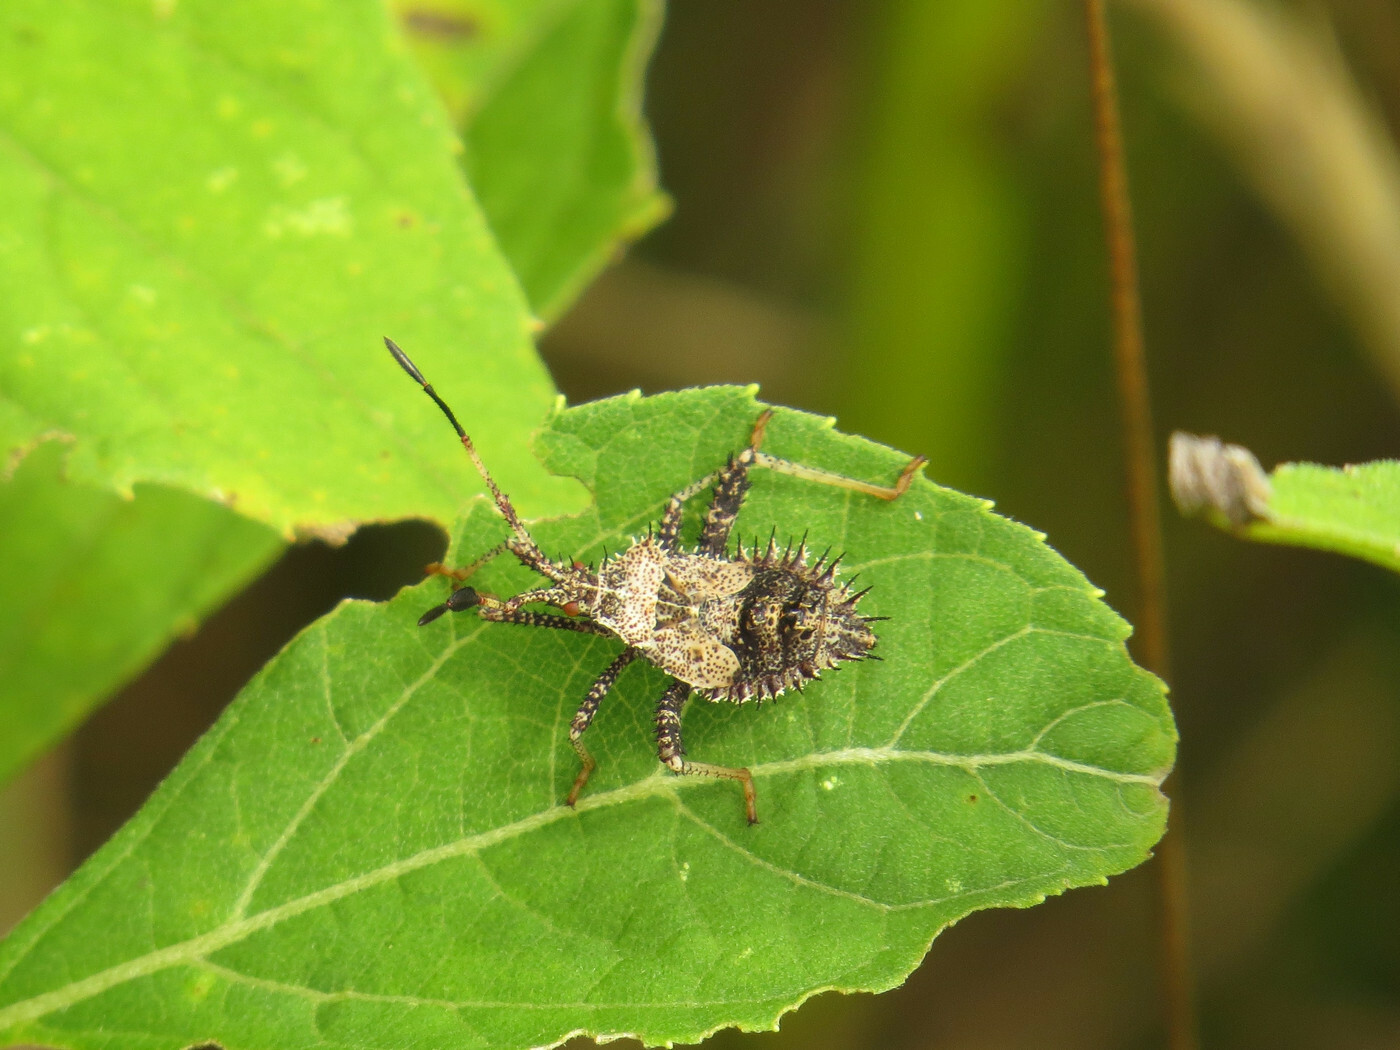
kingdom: Animalia
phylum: Arthropoda
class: Insecta
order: Hemiptera
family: Coreidae
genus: Euthochtha
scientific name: Euthochtha galeator
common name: Helmeted squash bug
